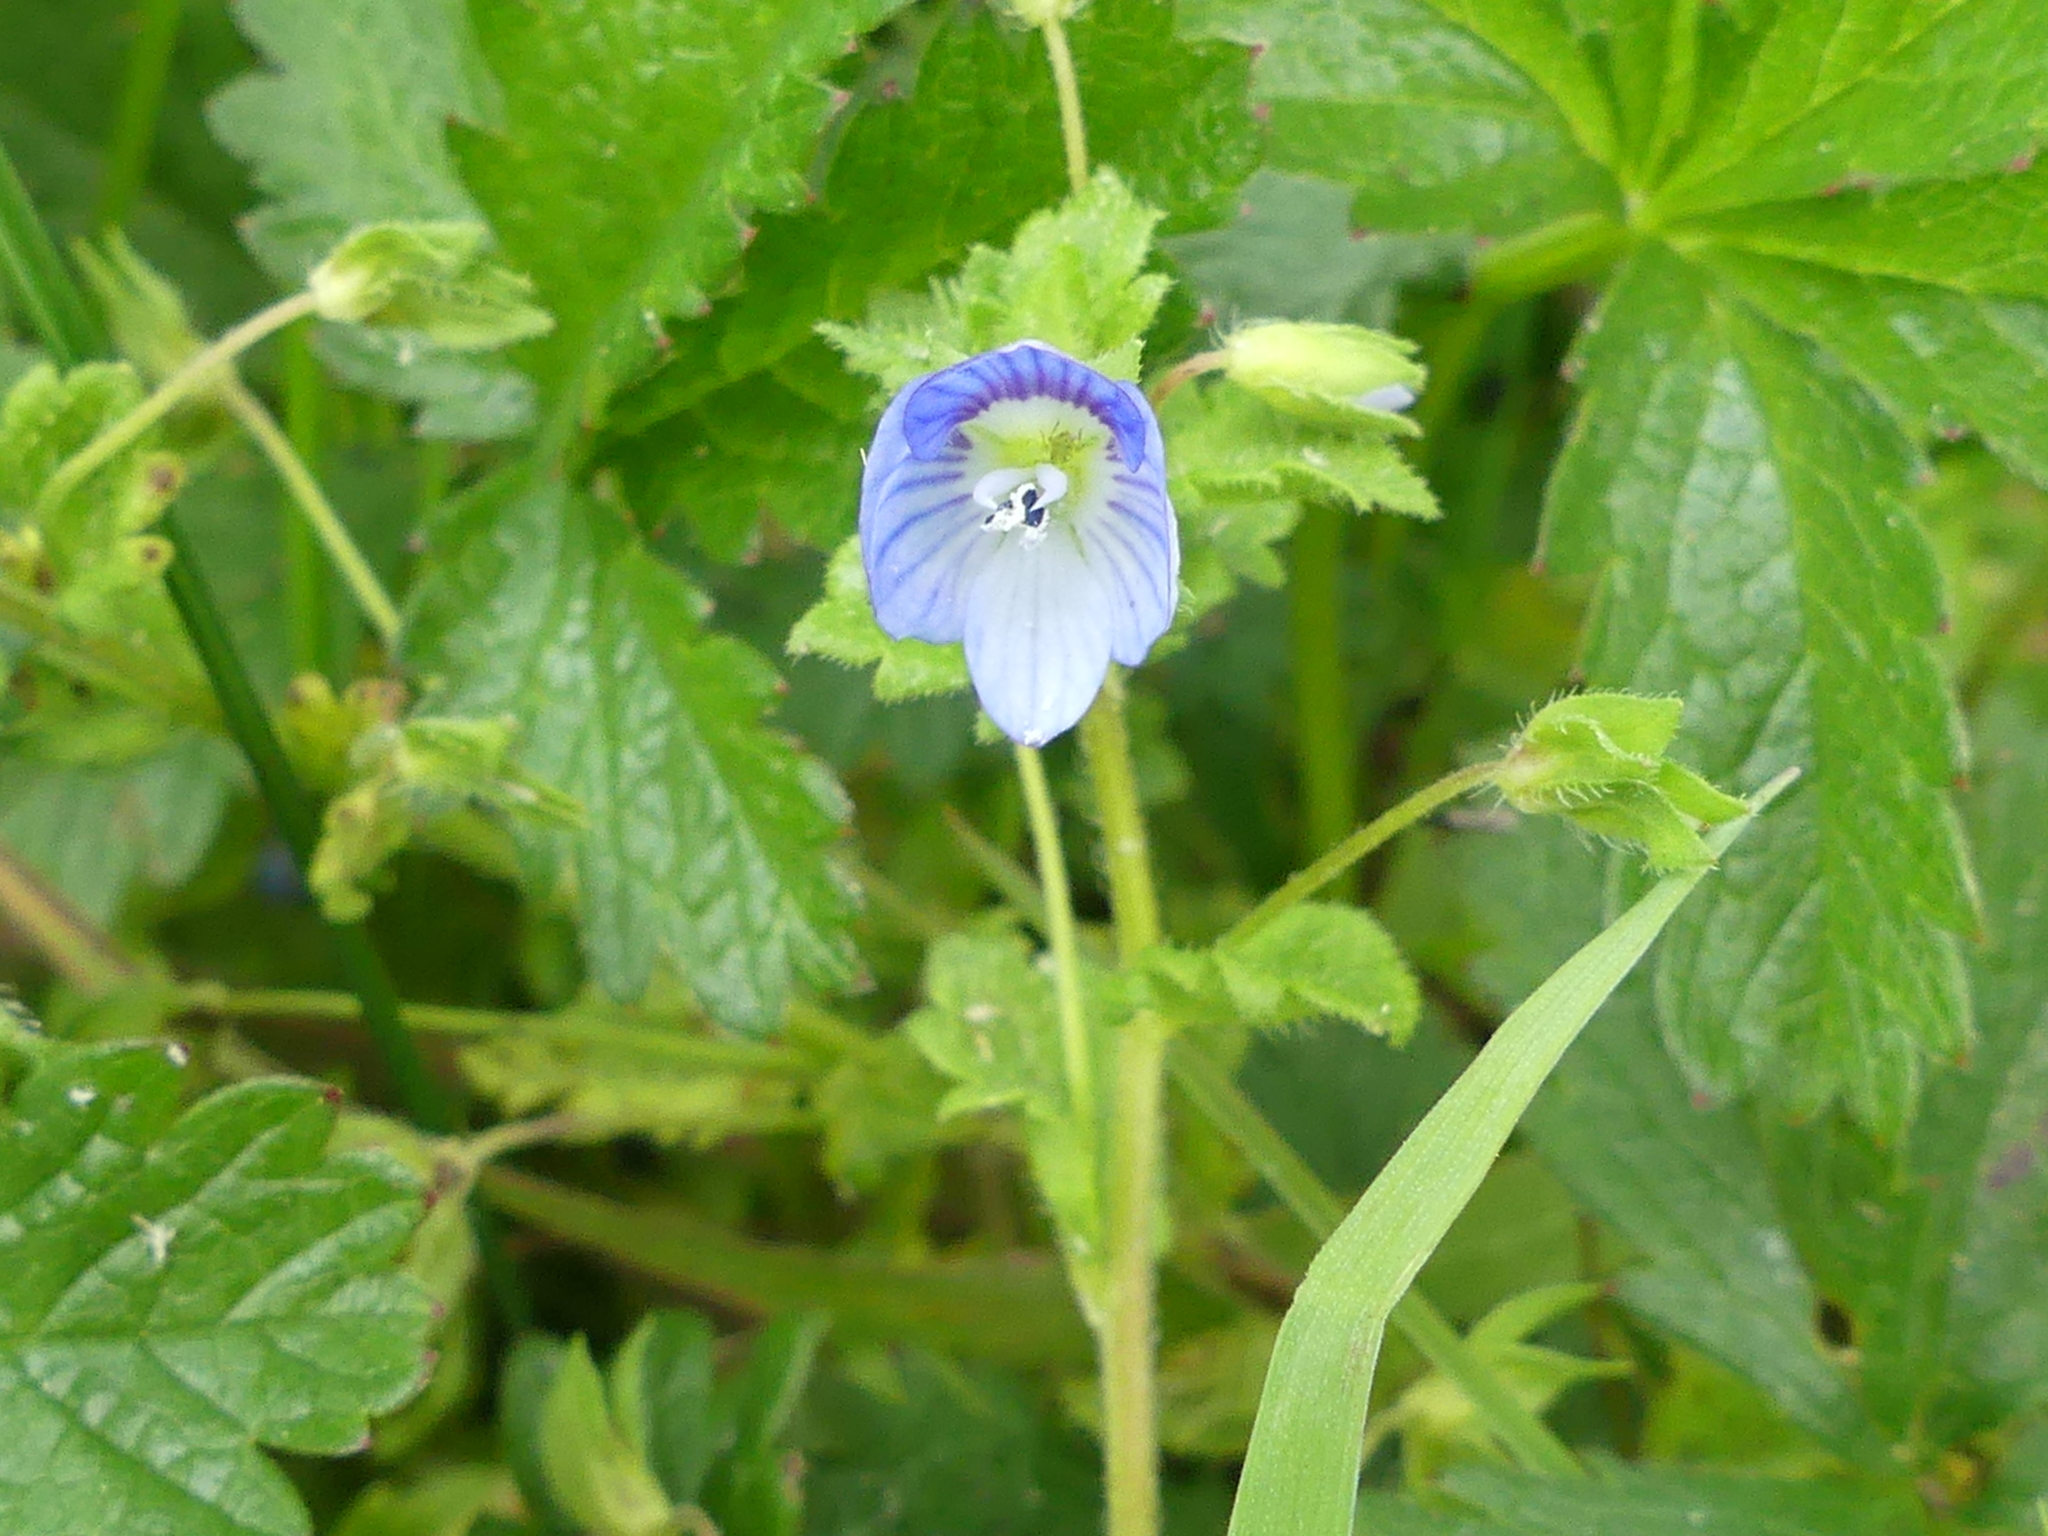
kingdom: Plantae
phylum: Tracheophyta
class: Magnoliopsida
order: Lamiales
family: Plantaginaceae
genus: Veronica
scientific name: Veronica persica
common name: Common field-speedwell
